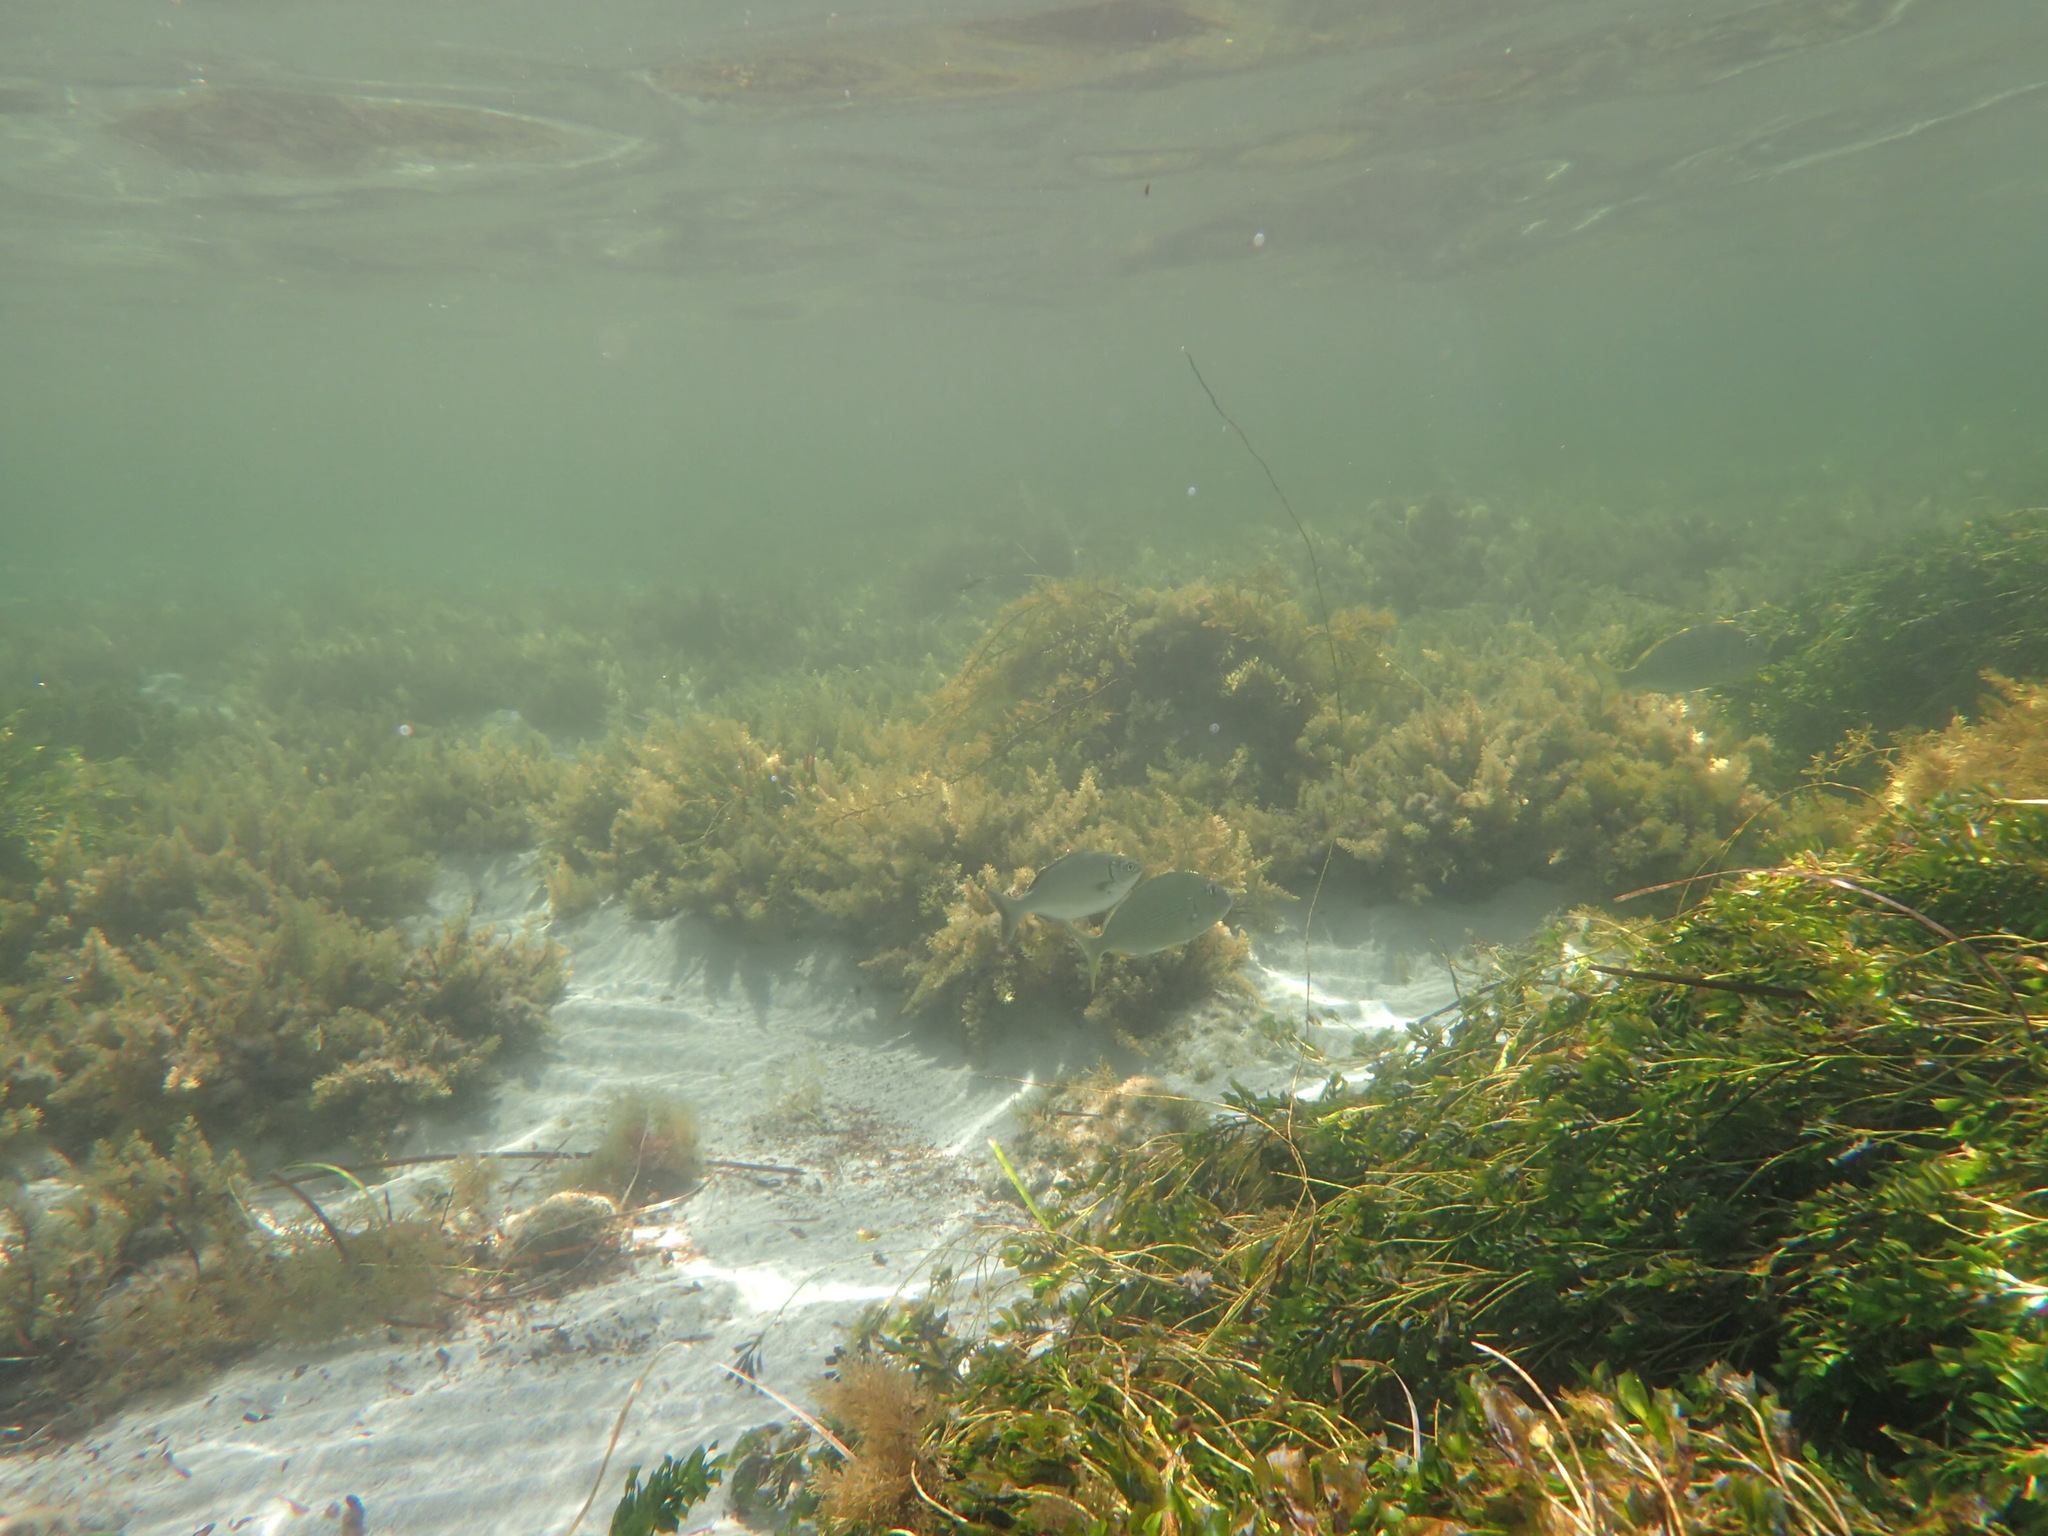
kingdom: Animalia
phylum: Chordata
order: Perciformes
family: Sparidae
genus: Rhabdosargus
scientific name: Rhabdosargus sarba
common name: Goldlined seabream
